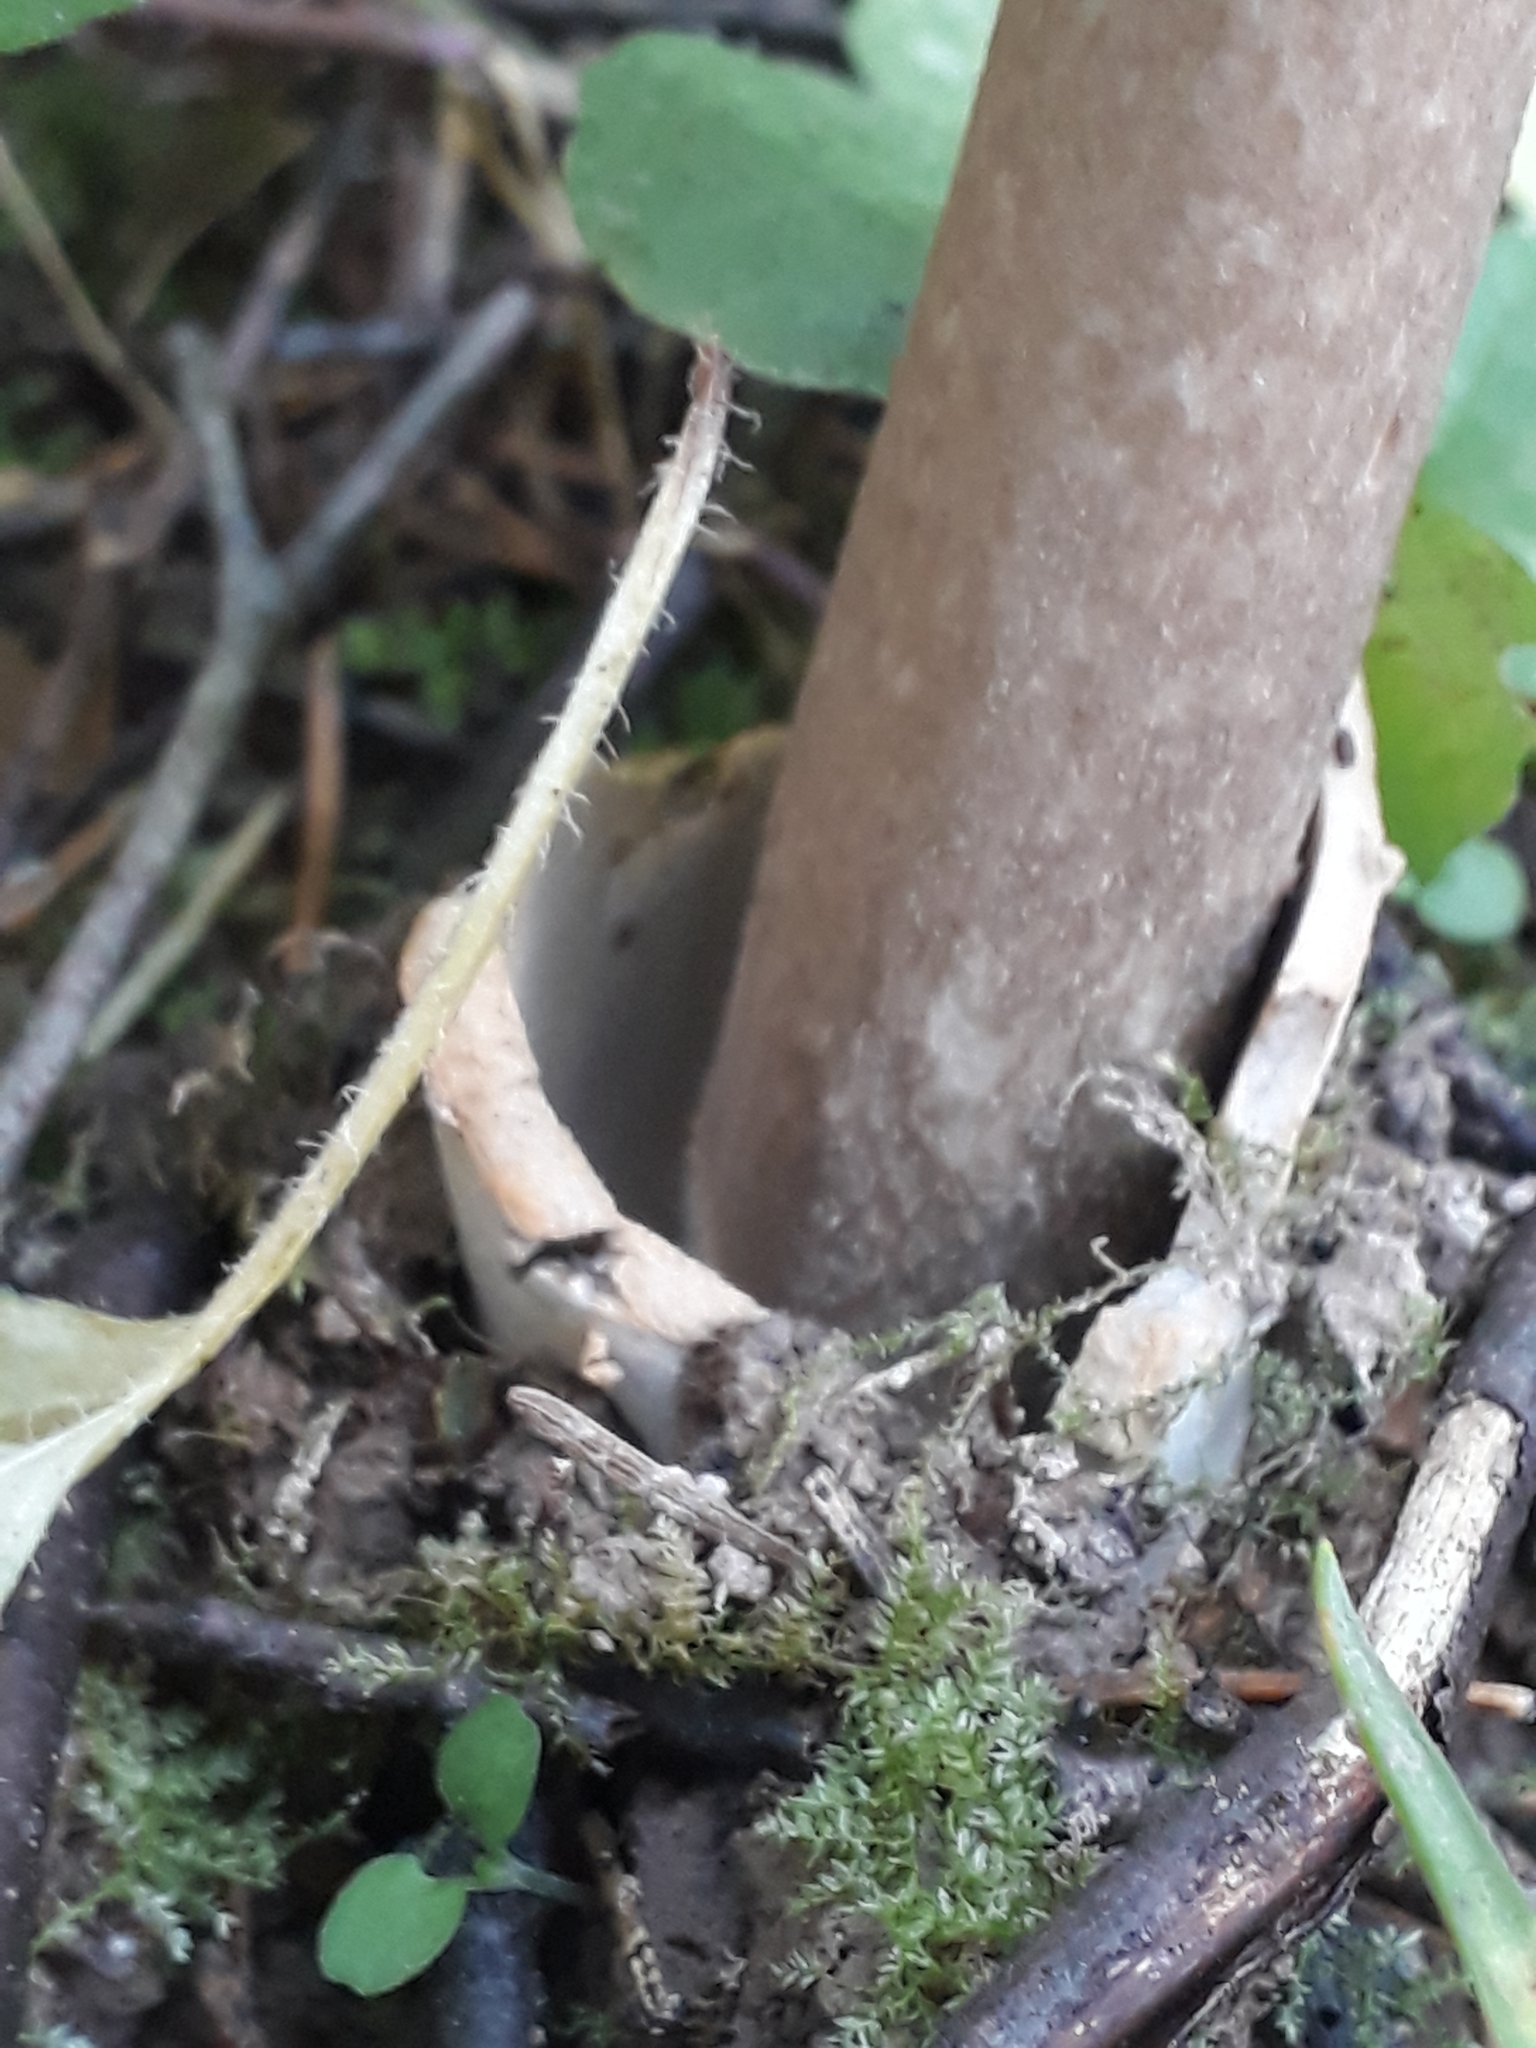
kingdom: Fungi
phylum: Basidiomycota
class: Agaricomycetes
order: Agaricales
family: Amanitaceae
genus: Amanita
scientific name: Amanita battarrae
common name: Banded amanita
